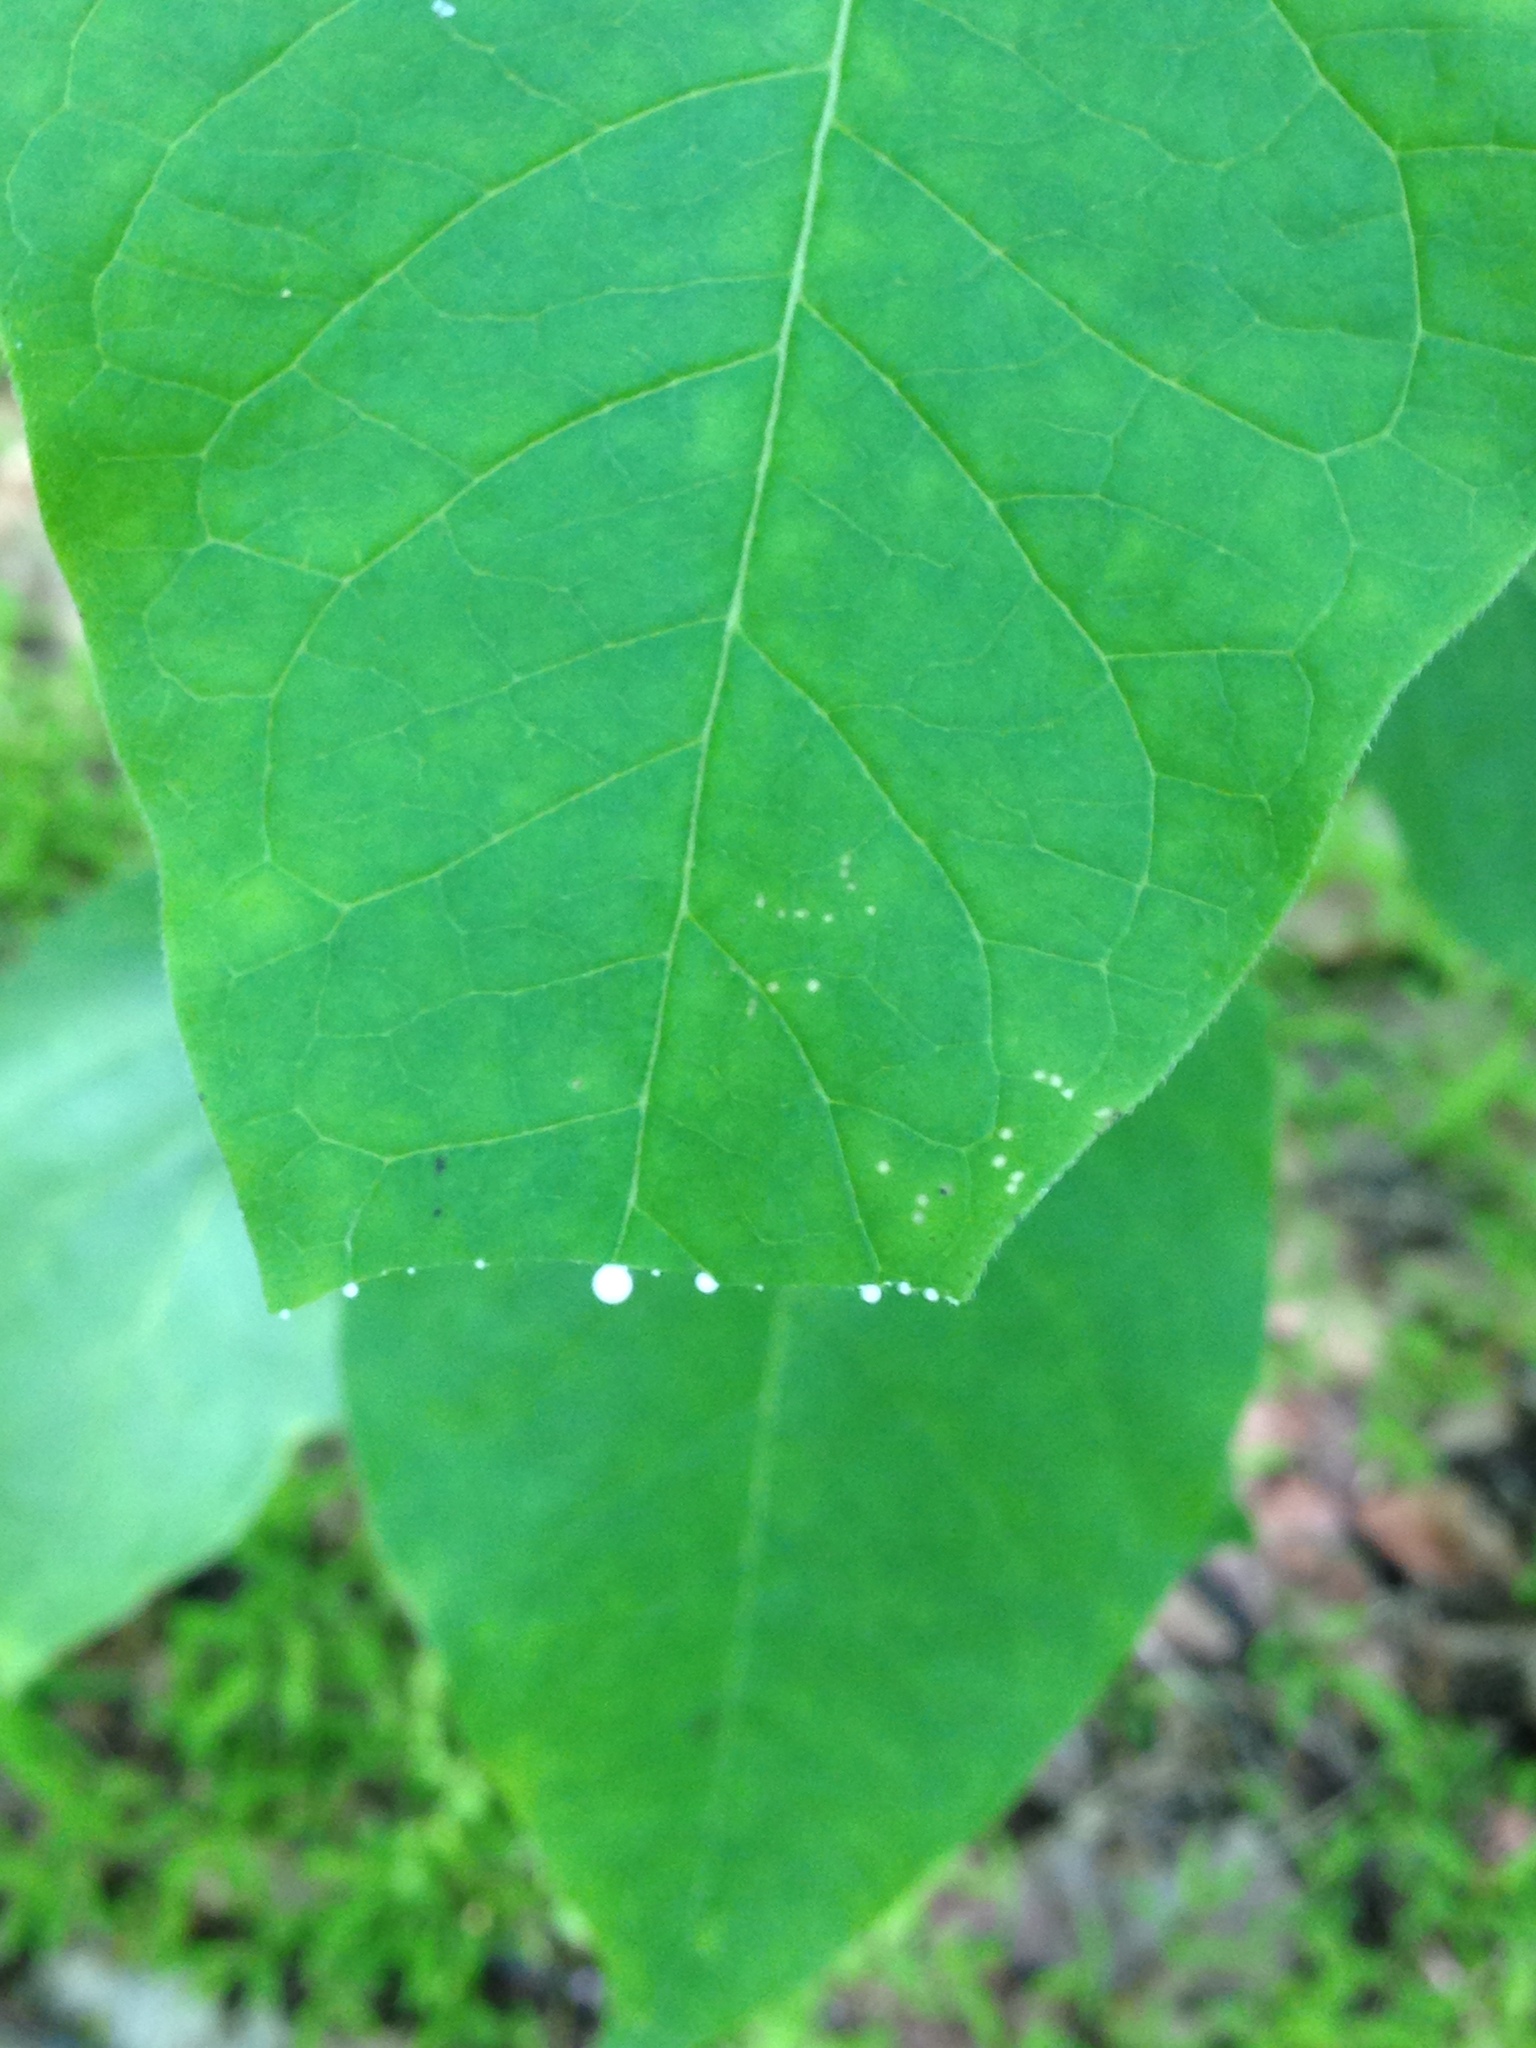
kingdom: Plantae
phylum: Tracheophyta
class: Magnoliopsida
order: Gentianales
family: Apocynaceae
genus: Asclepias
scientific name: Asclepias exaltata
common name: Poke milkweed
